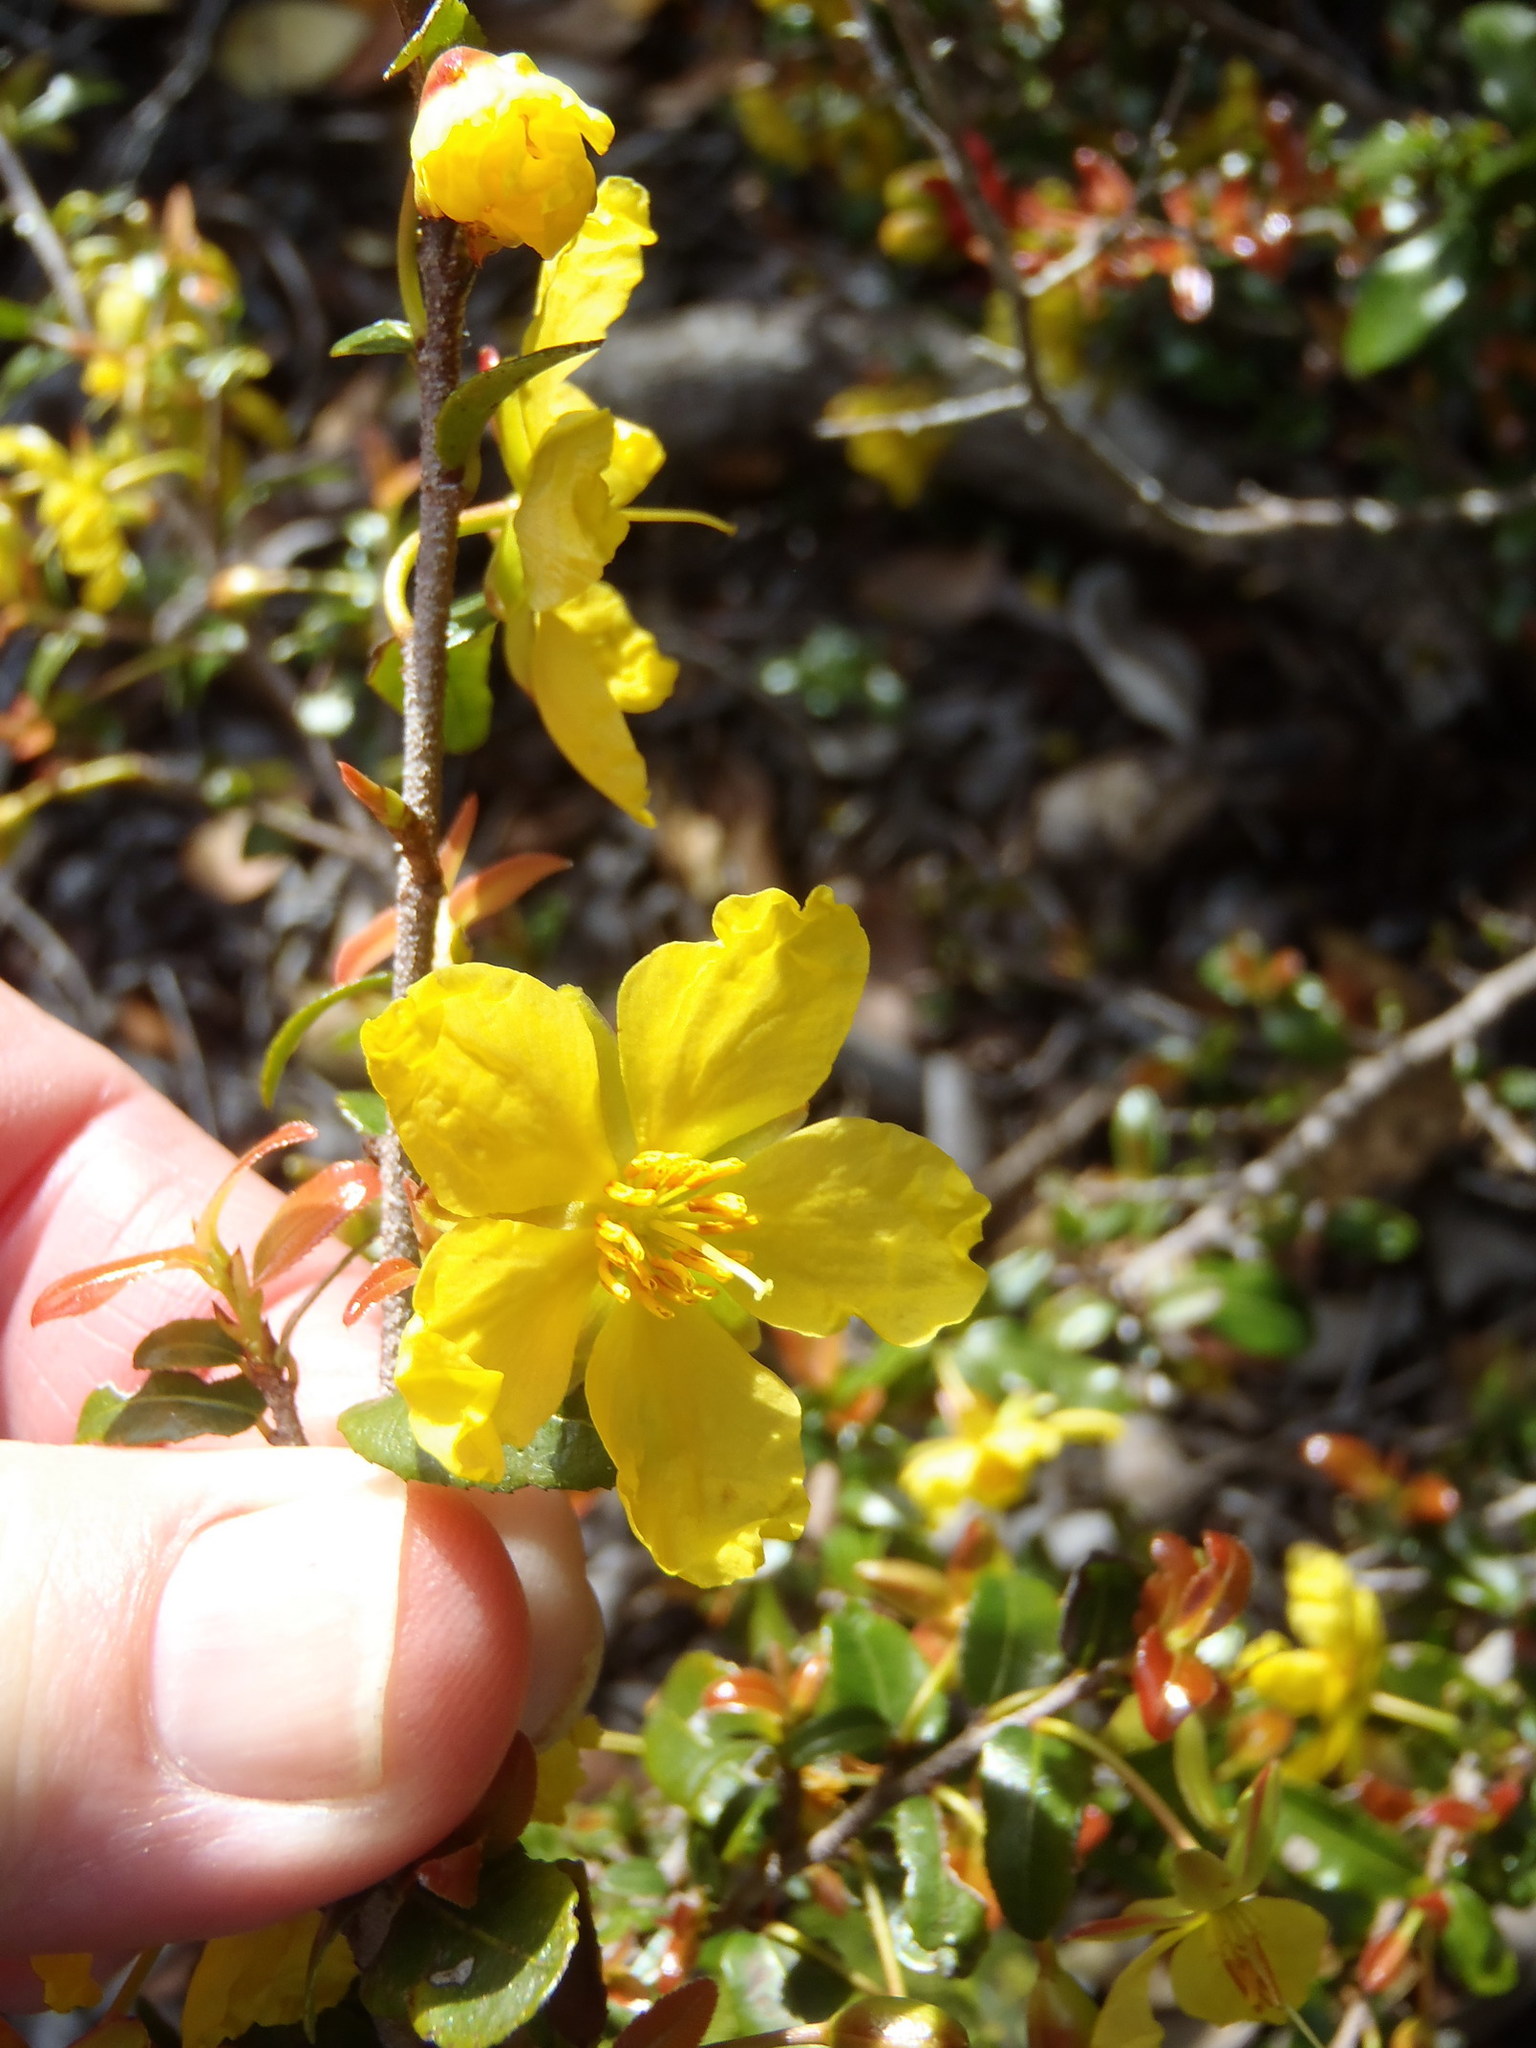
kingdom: Plantae
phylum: Tracheophyta
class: Magnoliopsida
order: Malpighiales
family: Ochnaceae
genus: Ochna
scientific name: Ochna serrulata
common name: Mickey mouse plant
